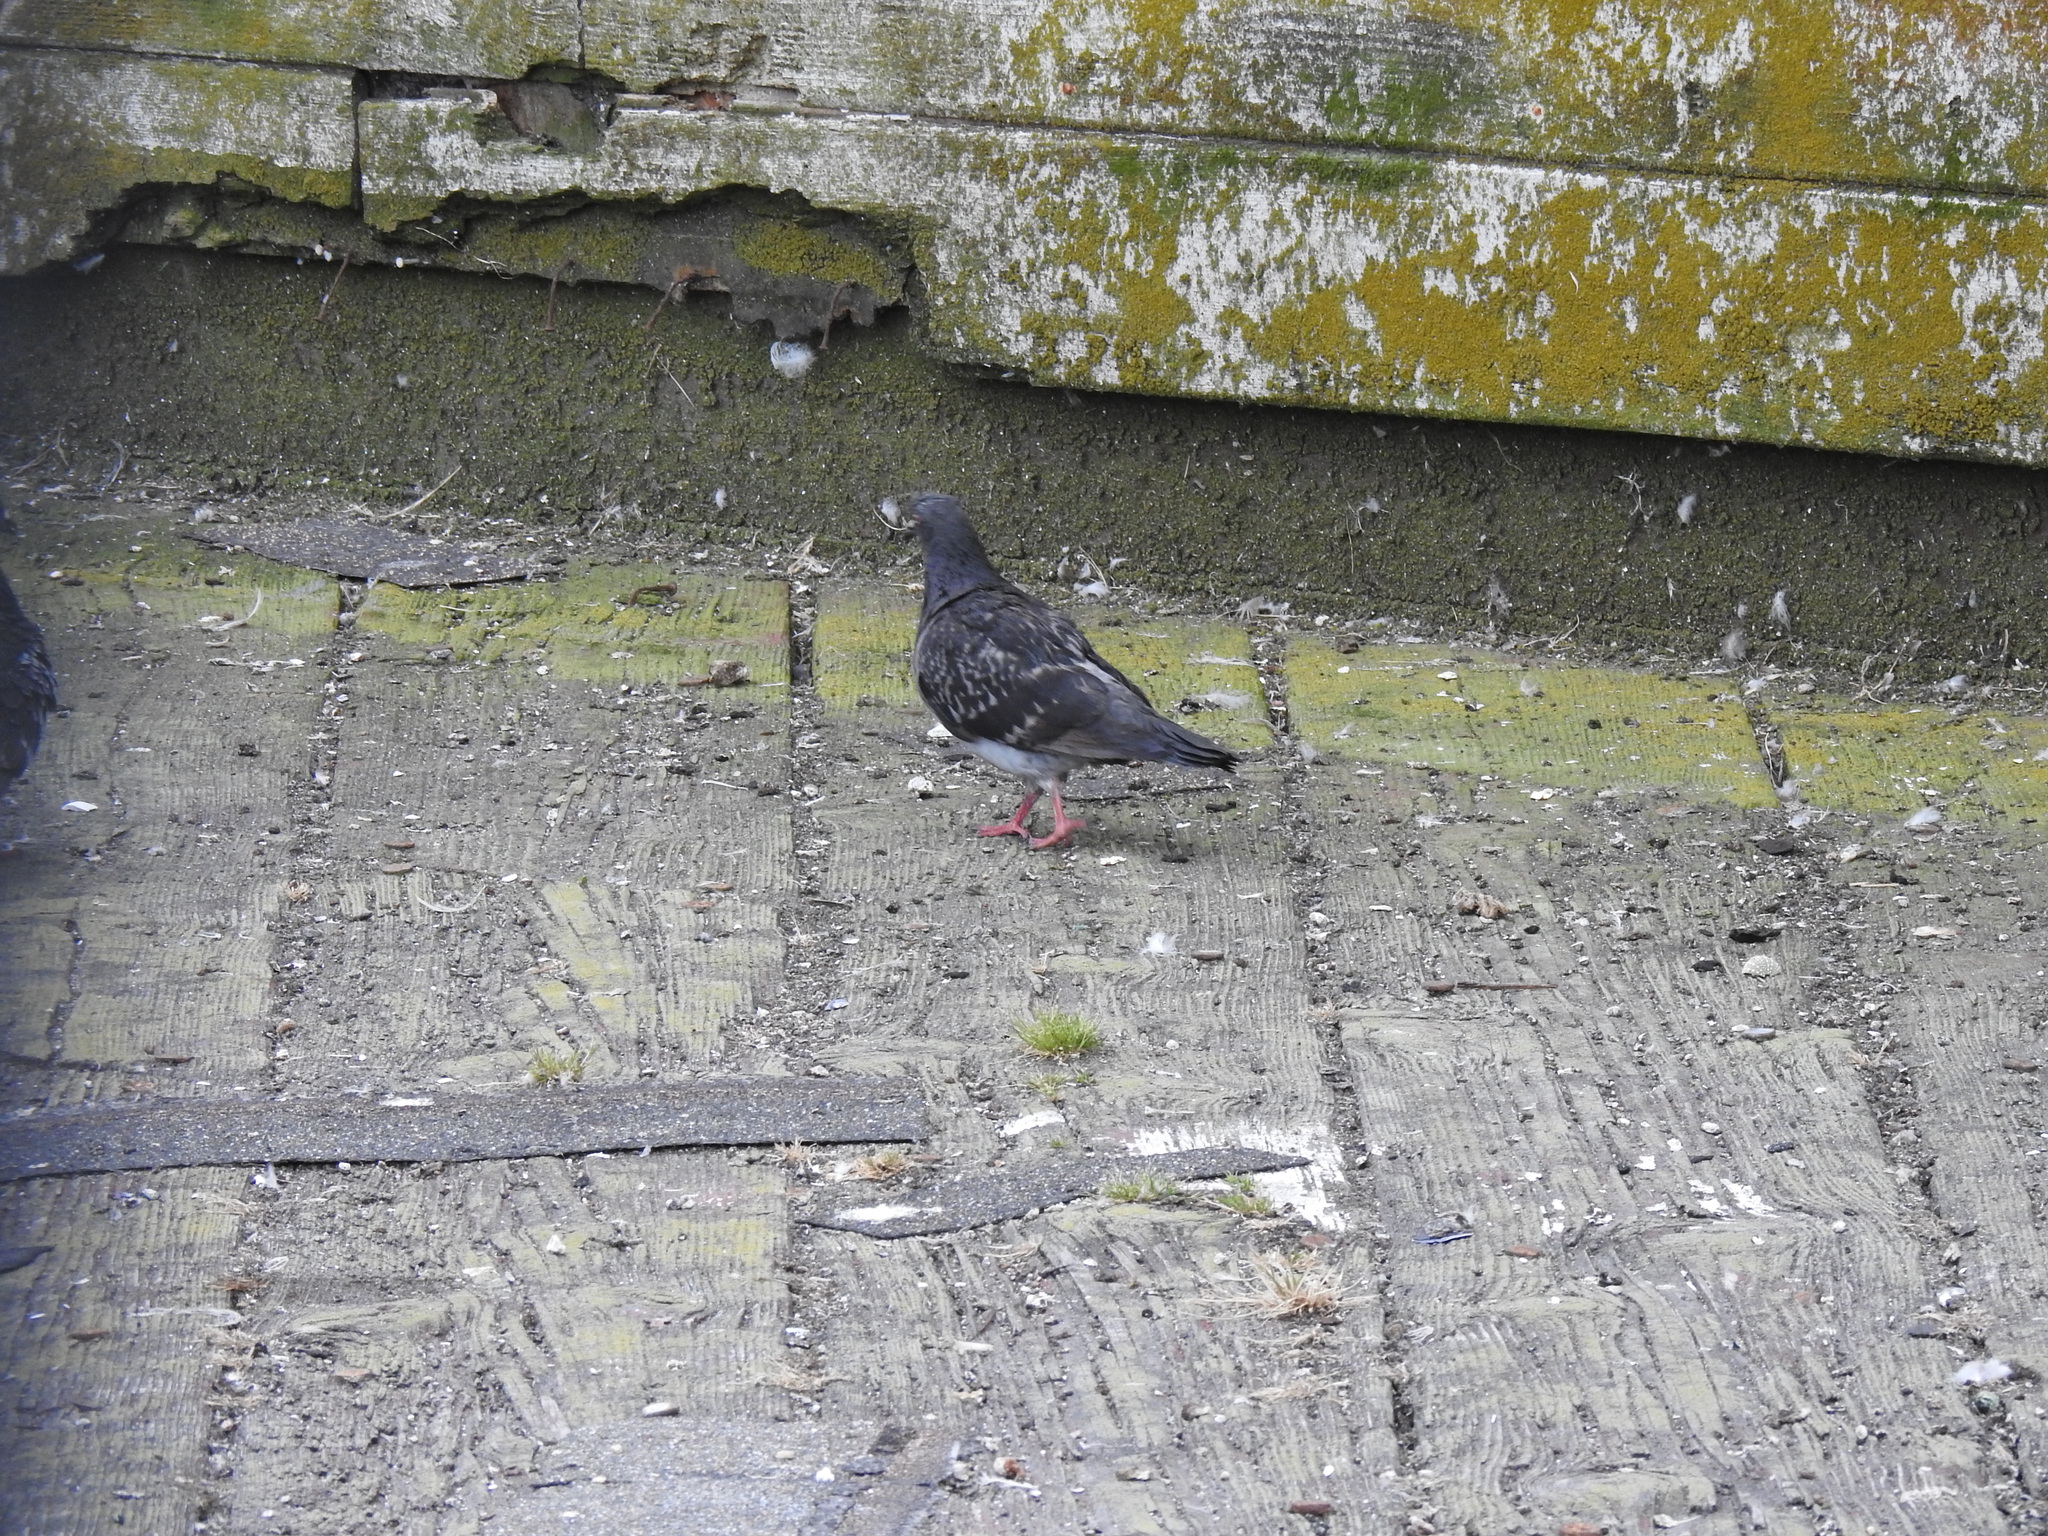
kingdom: Animalia
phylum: Chordata
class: Aves
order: Columbiformes
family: Columbidae
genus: Columba
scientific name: Columba livia
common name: Rock pigeon
